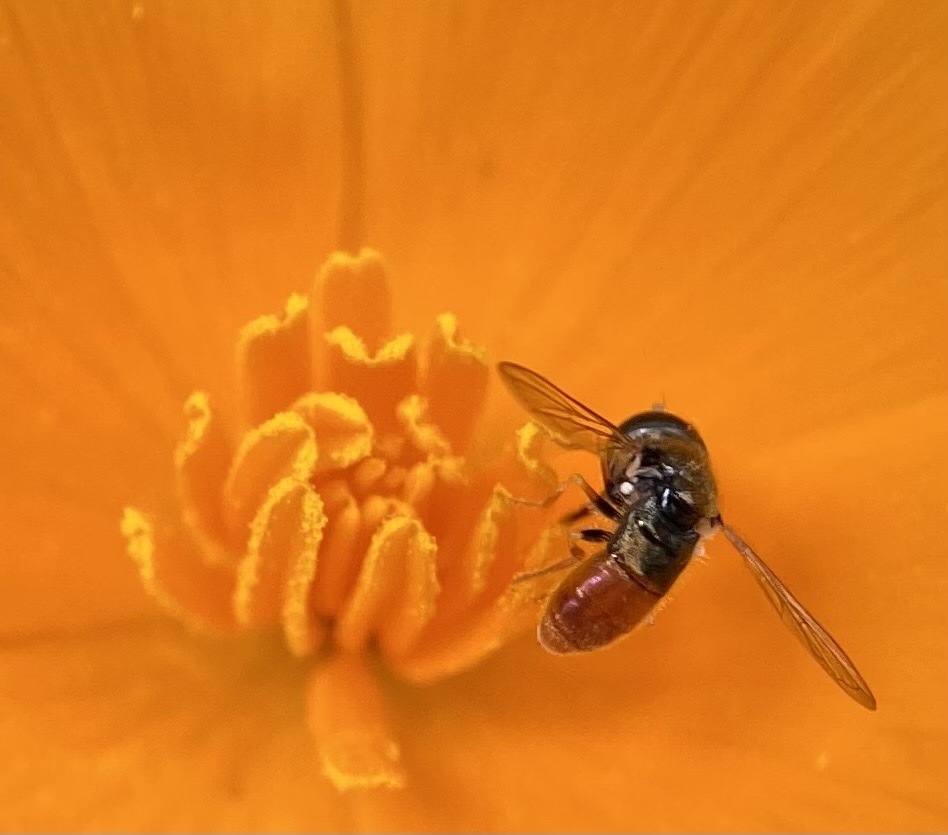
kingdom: Animalia
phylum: Arthropoda
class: Insecta
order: Diptera
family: Syrphidae
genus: Paragus
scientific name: Paragus haemorrhous
